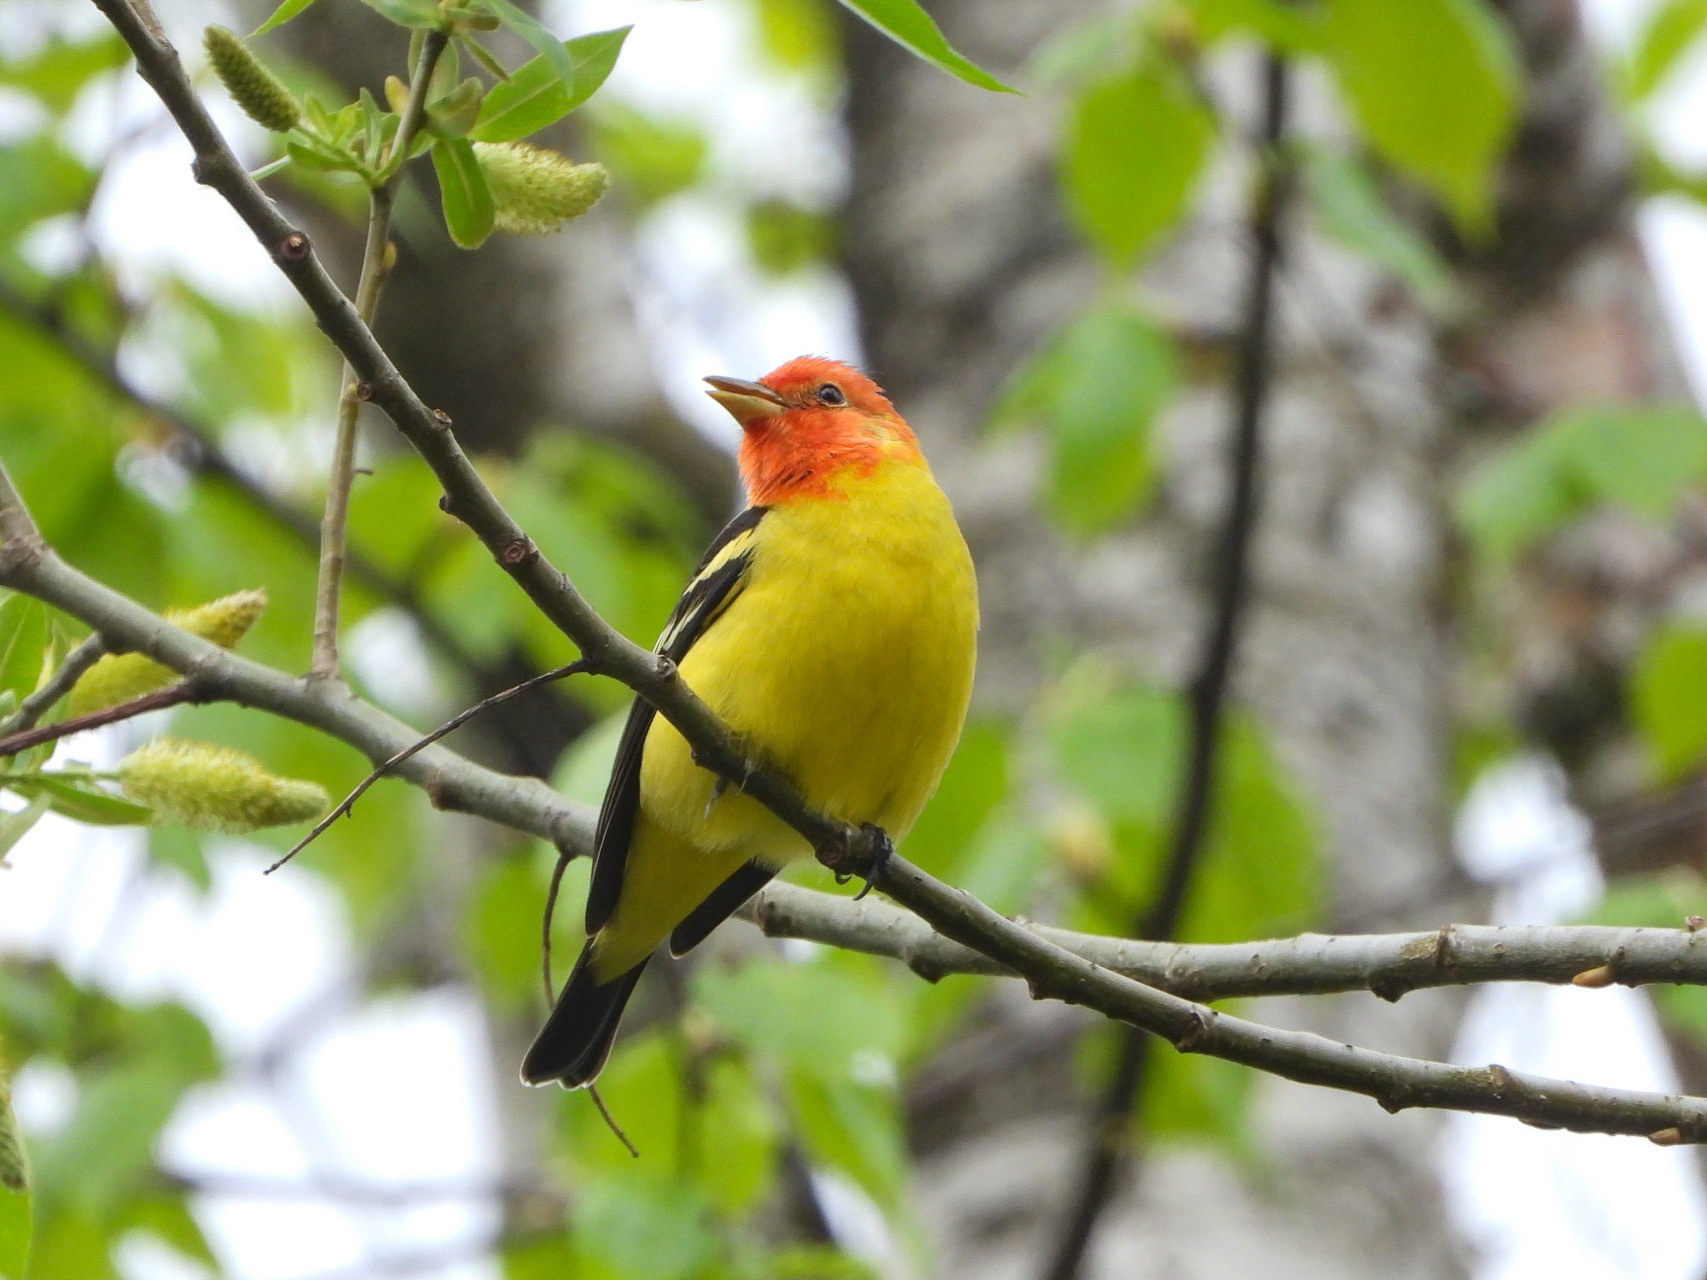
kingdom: Animalia
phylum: Chordata
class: Aves
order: Passeriformes
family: Cardinalidae
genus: Piranga
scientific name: Piranga ludoviciana
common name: Western tanager
